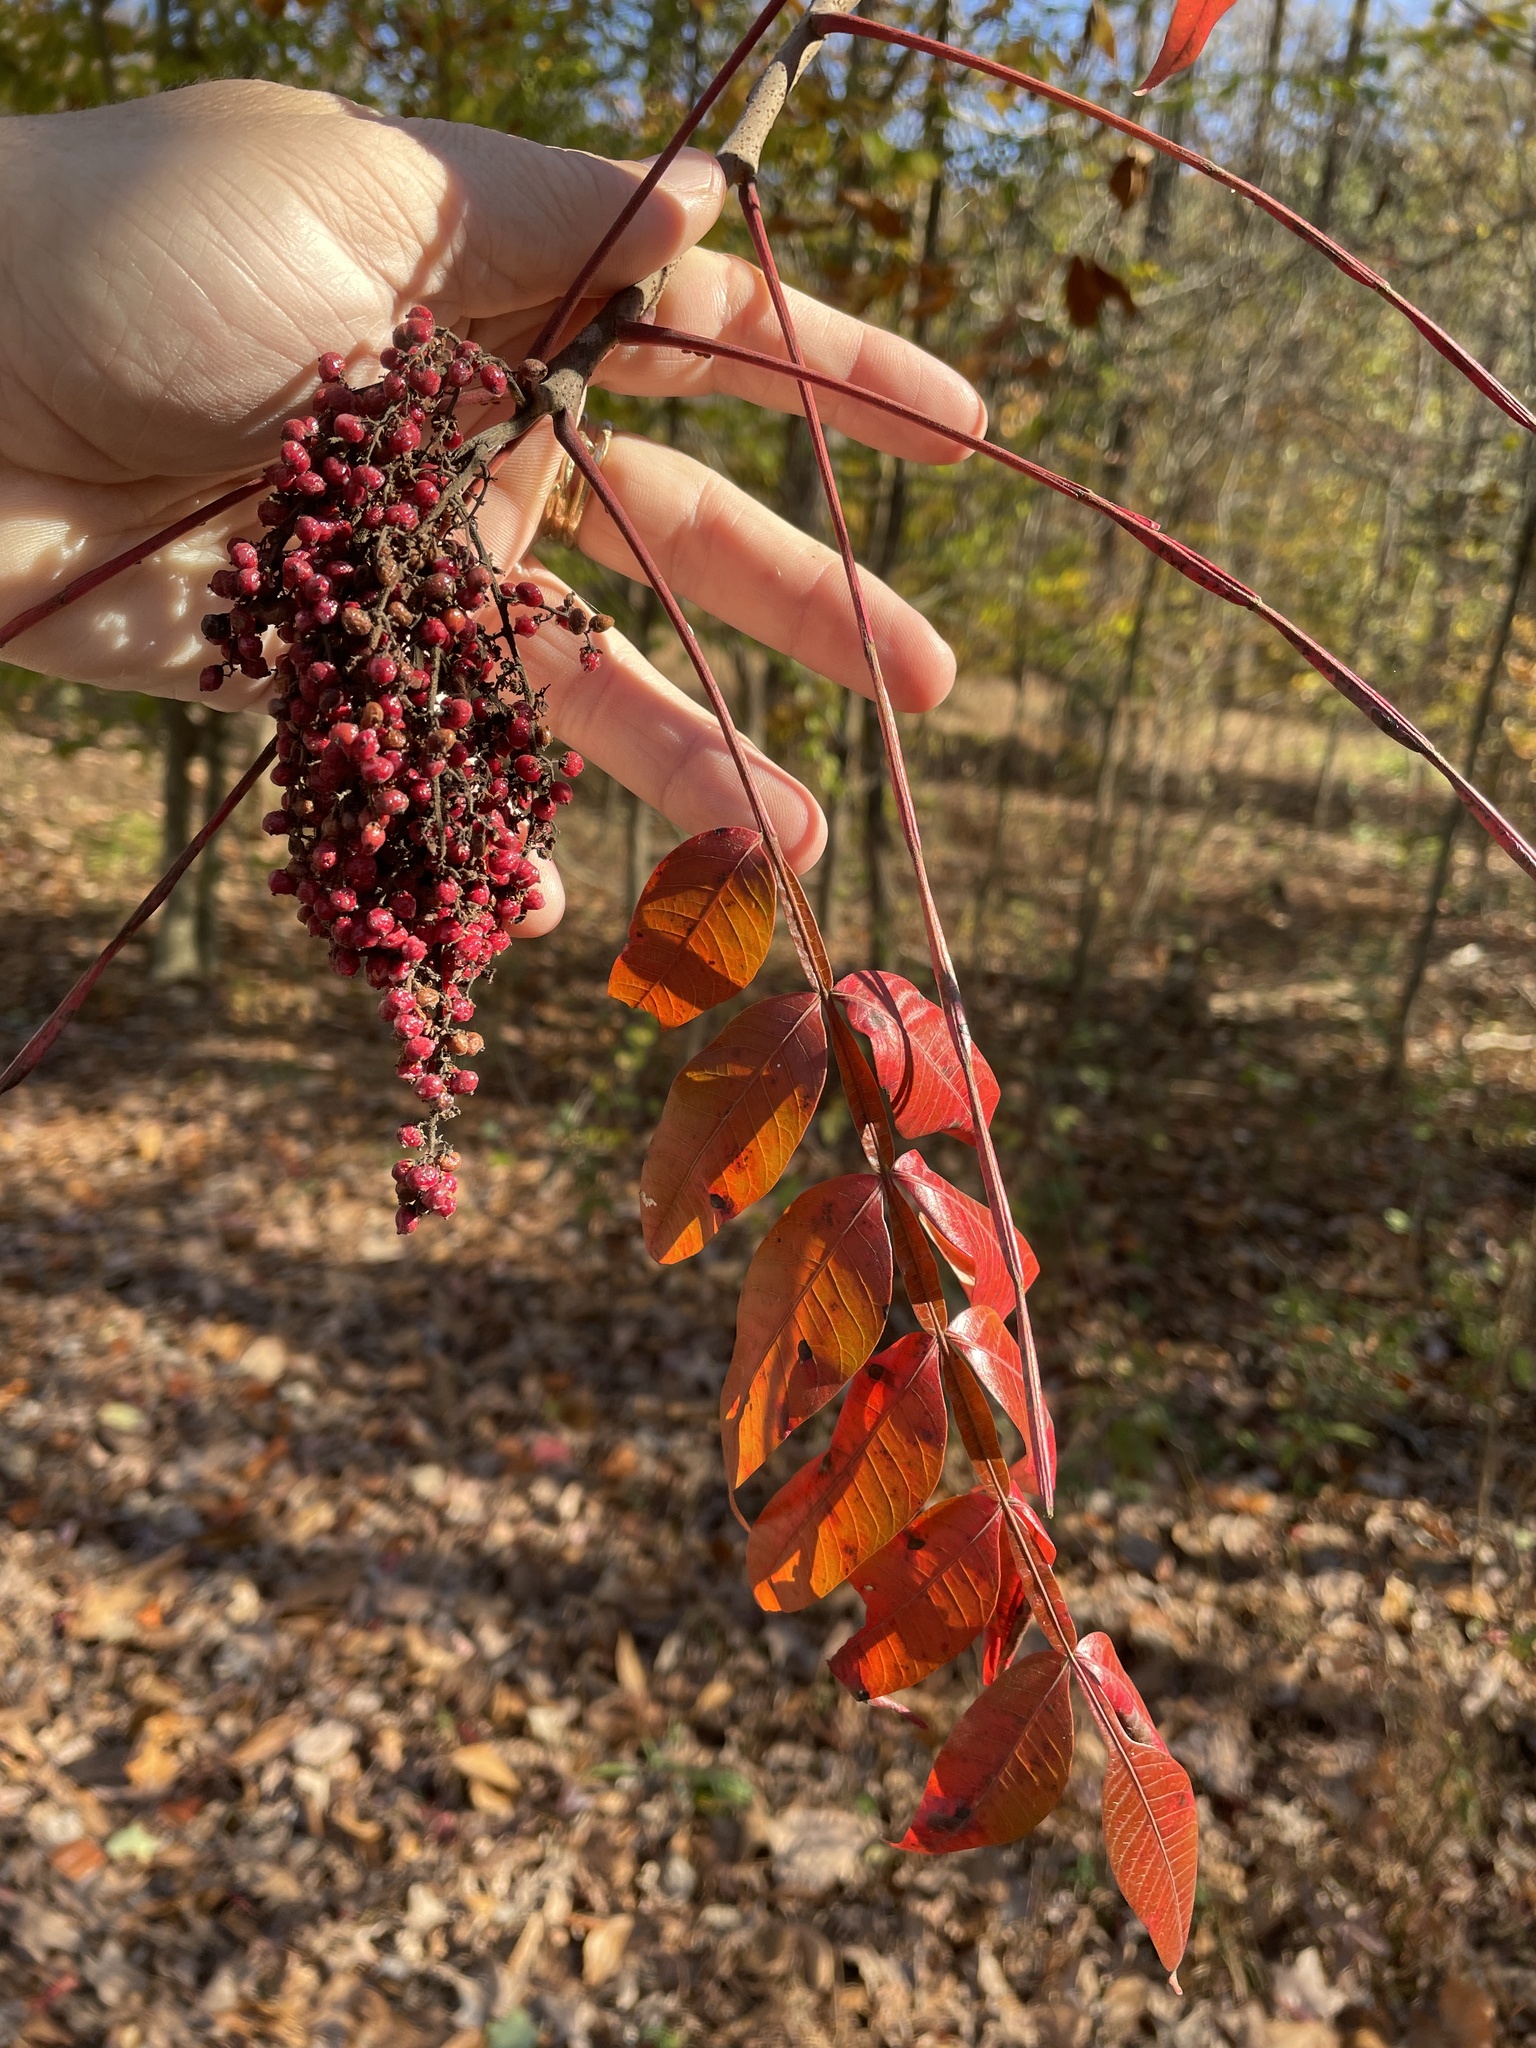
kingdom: Plantae
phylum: Tracheophyta
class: Magnoliopsida
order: Sapindales
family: Anacardiaceae
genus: Rhus
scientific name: Rhus copallina
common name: Shining sumac
